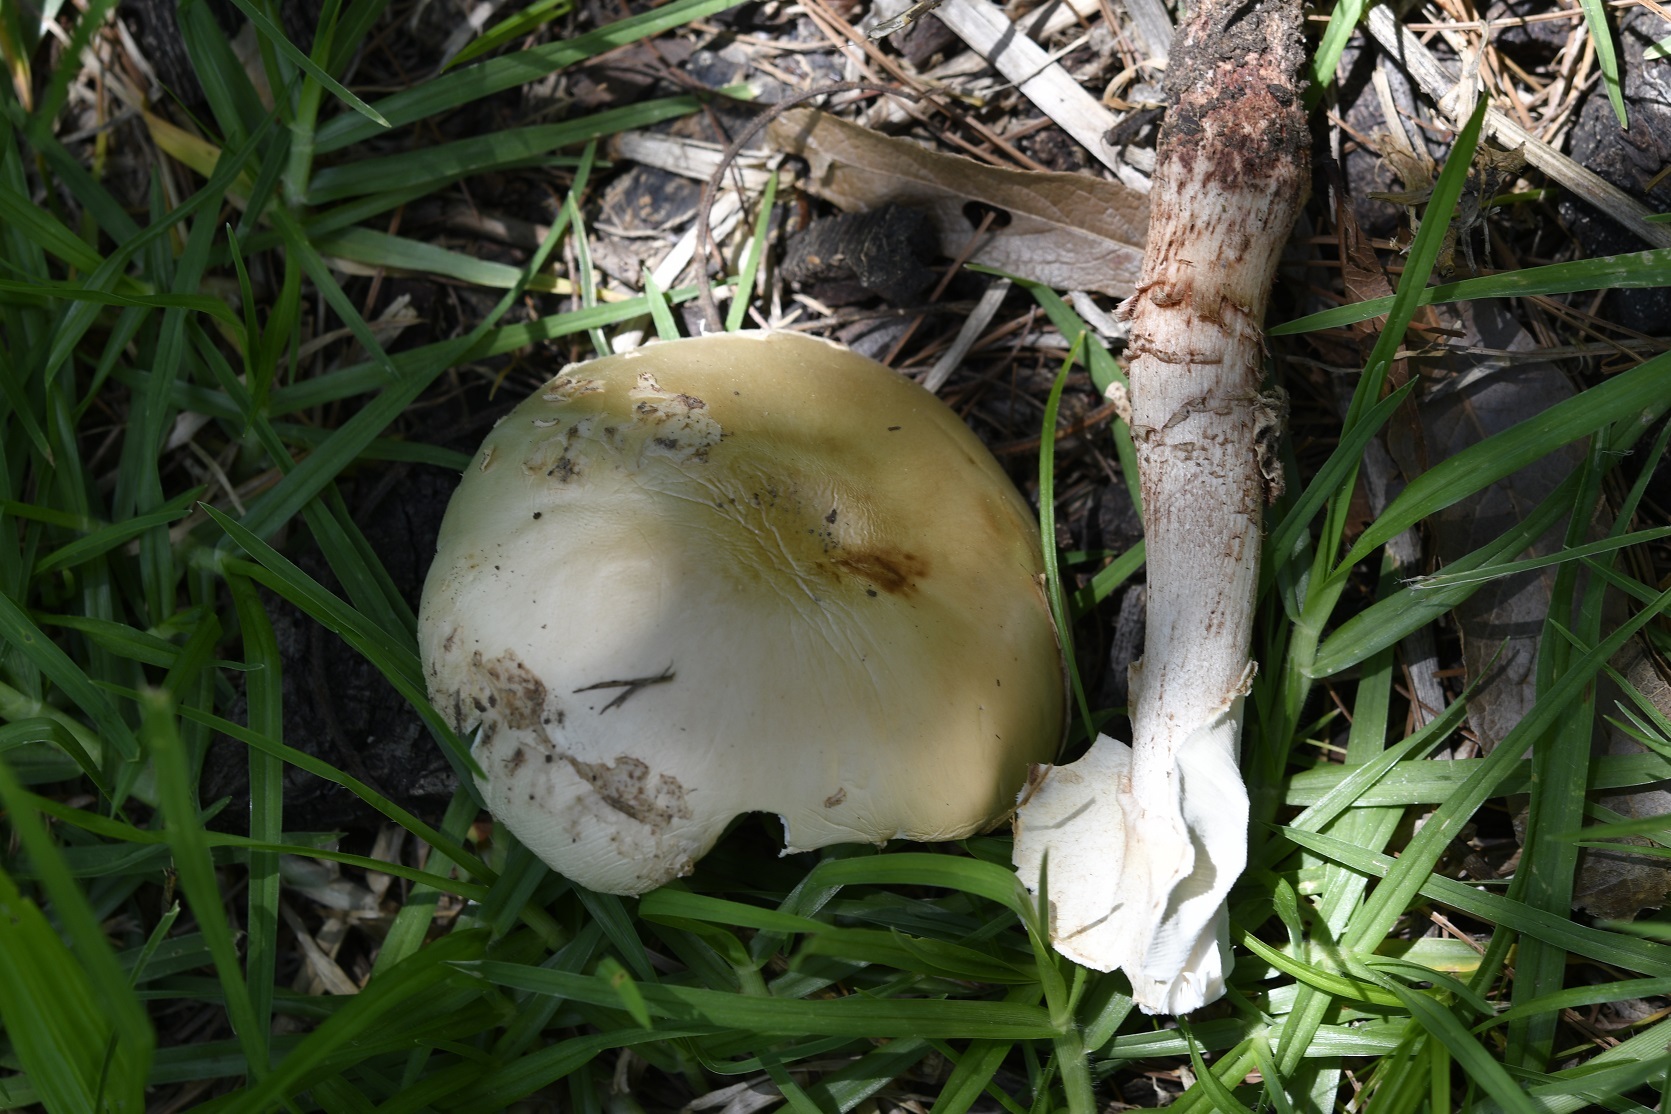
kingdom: Fungi
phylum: Basidiomycota
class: Agaricomycetes
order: Agaricales
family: Amanitaceae
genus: Amanita
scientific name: Amanita flavorubens
